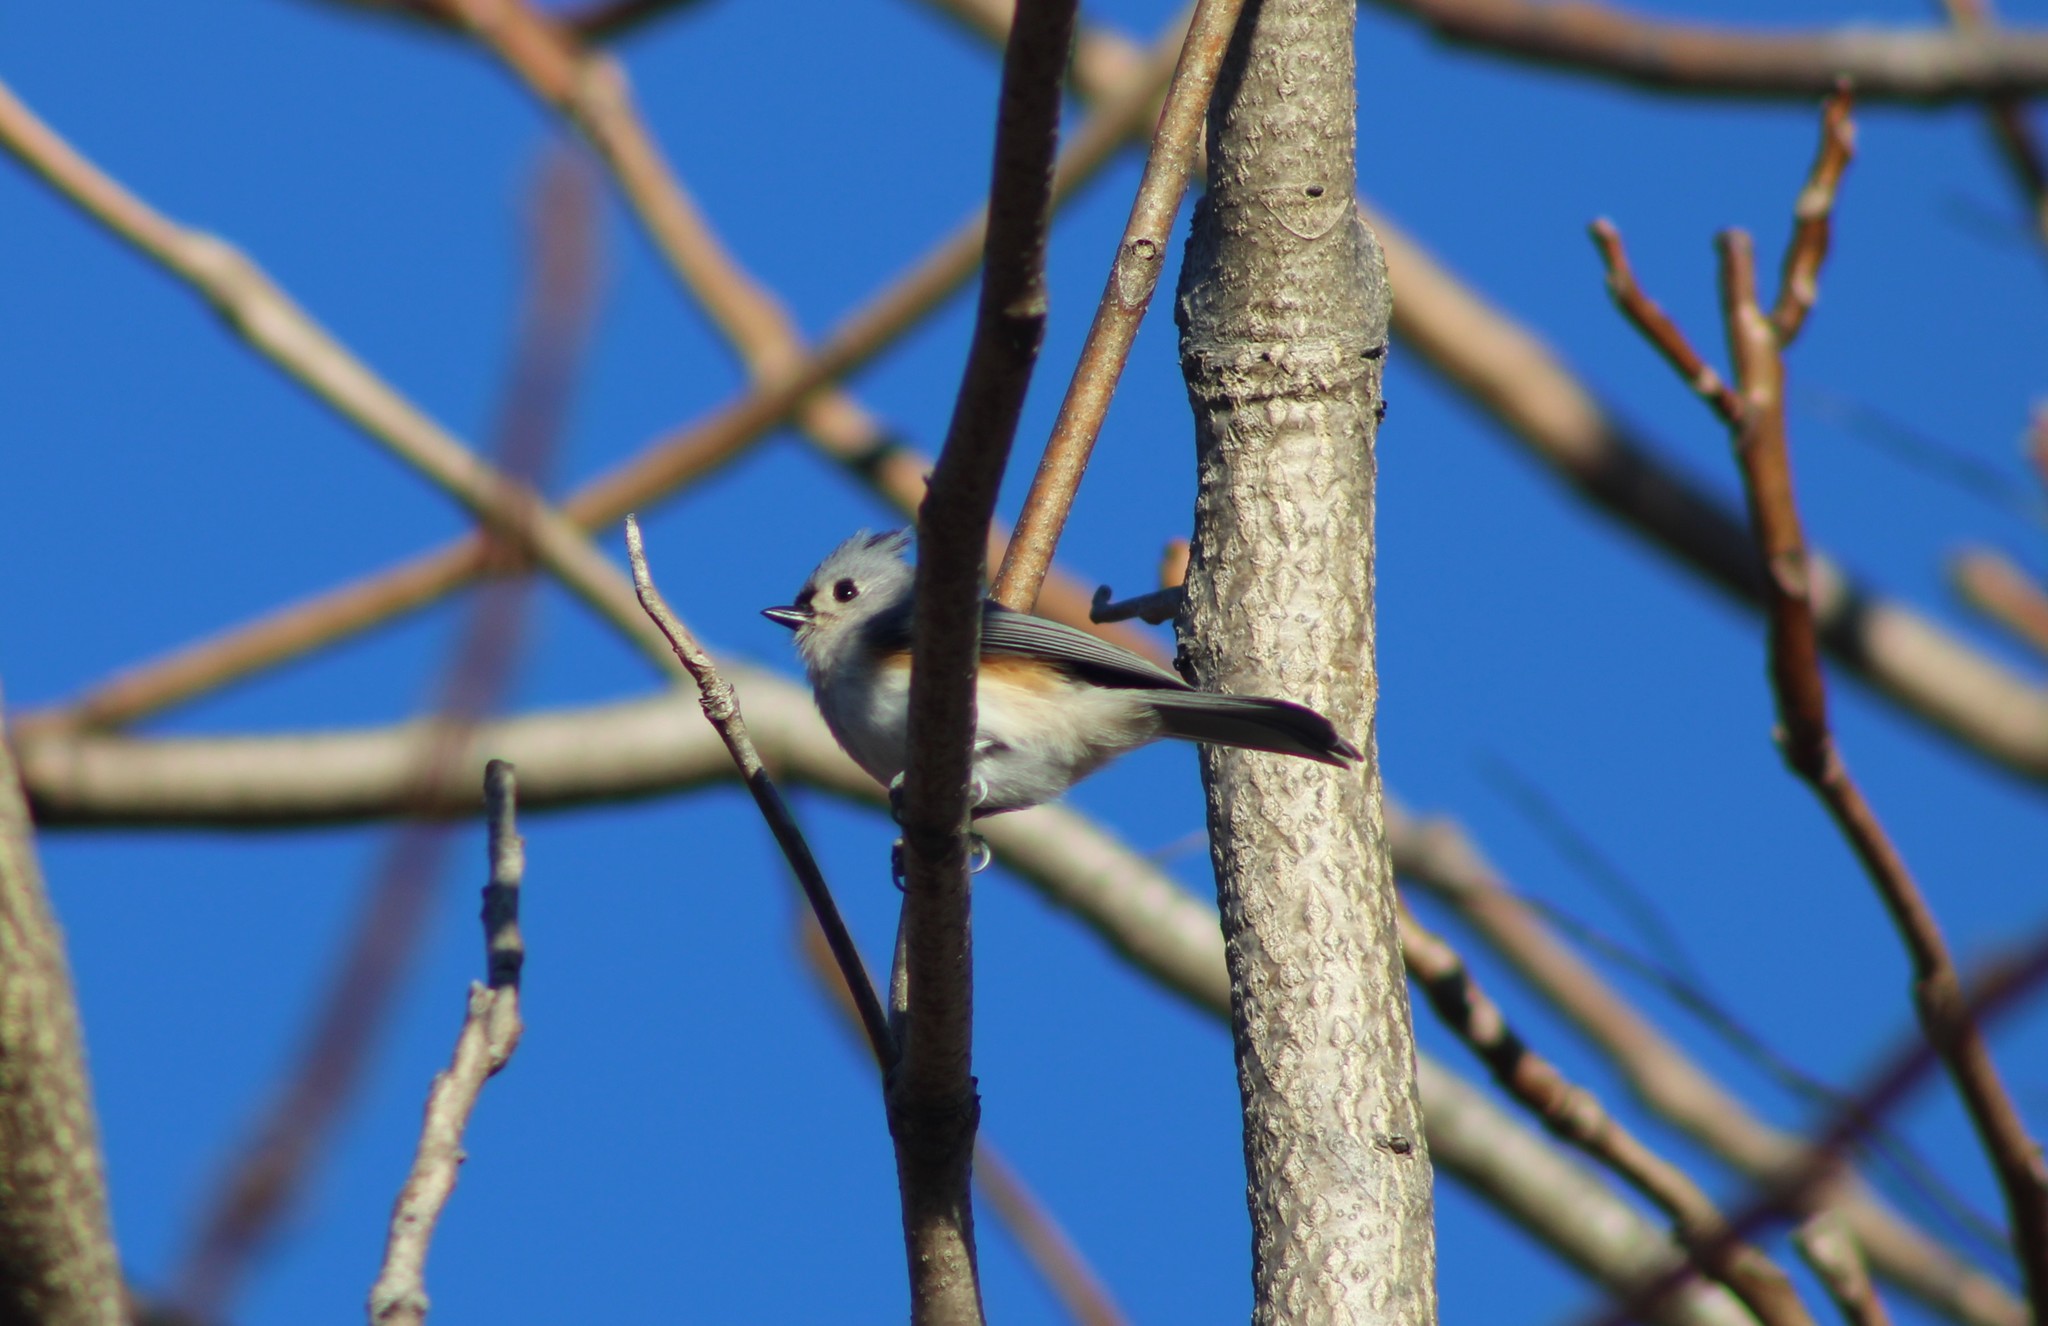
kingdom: Animalia
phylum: Chordata
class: Aves
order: Passeriformes
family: Paridae
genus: Baeolophus
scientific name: Baeolophus bicolor
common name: Tufted titmouse
